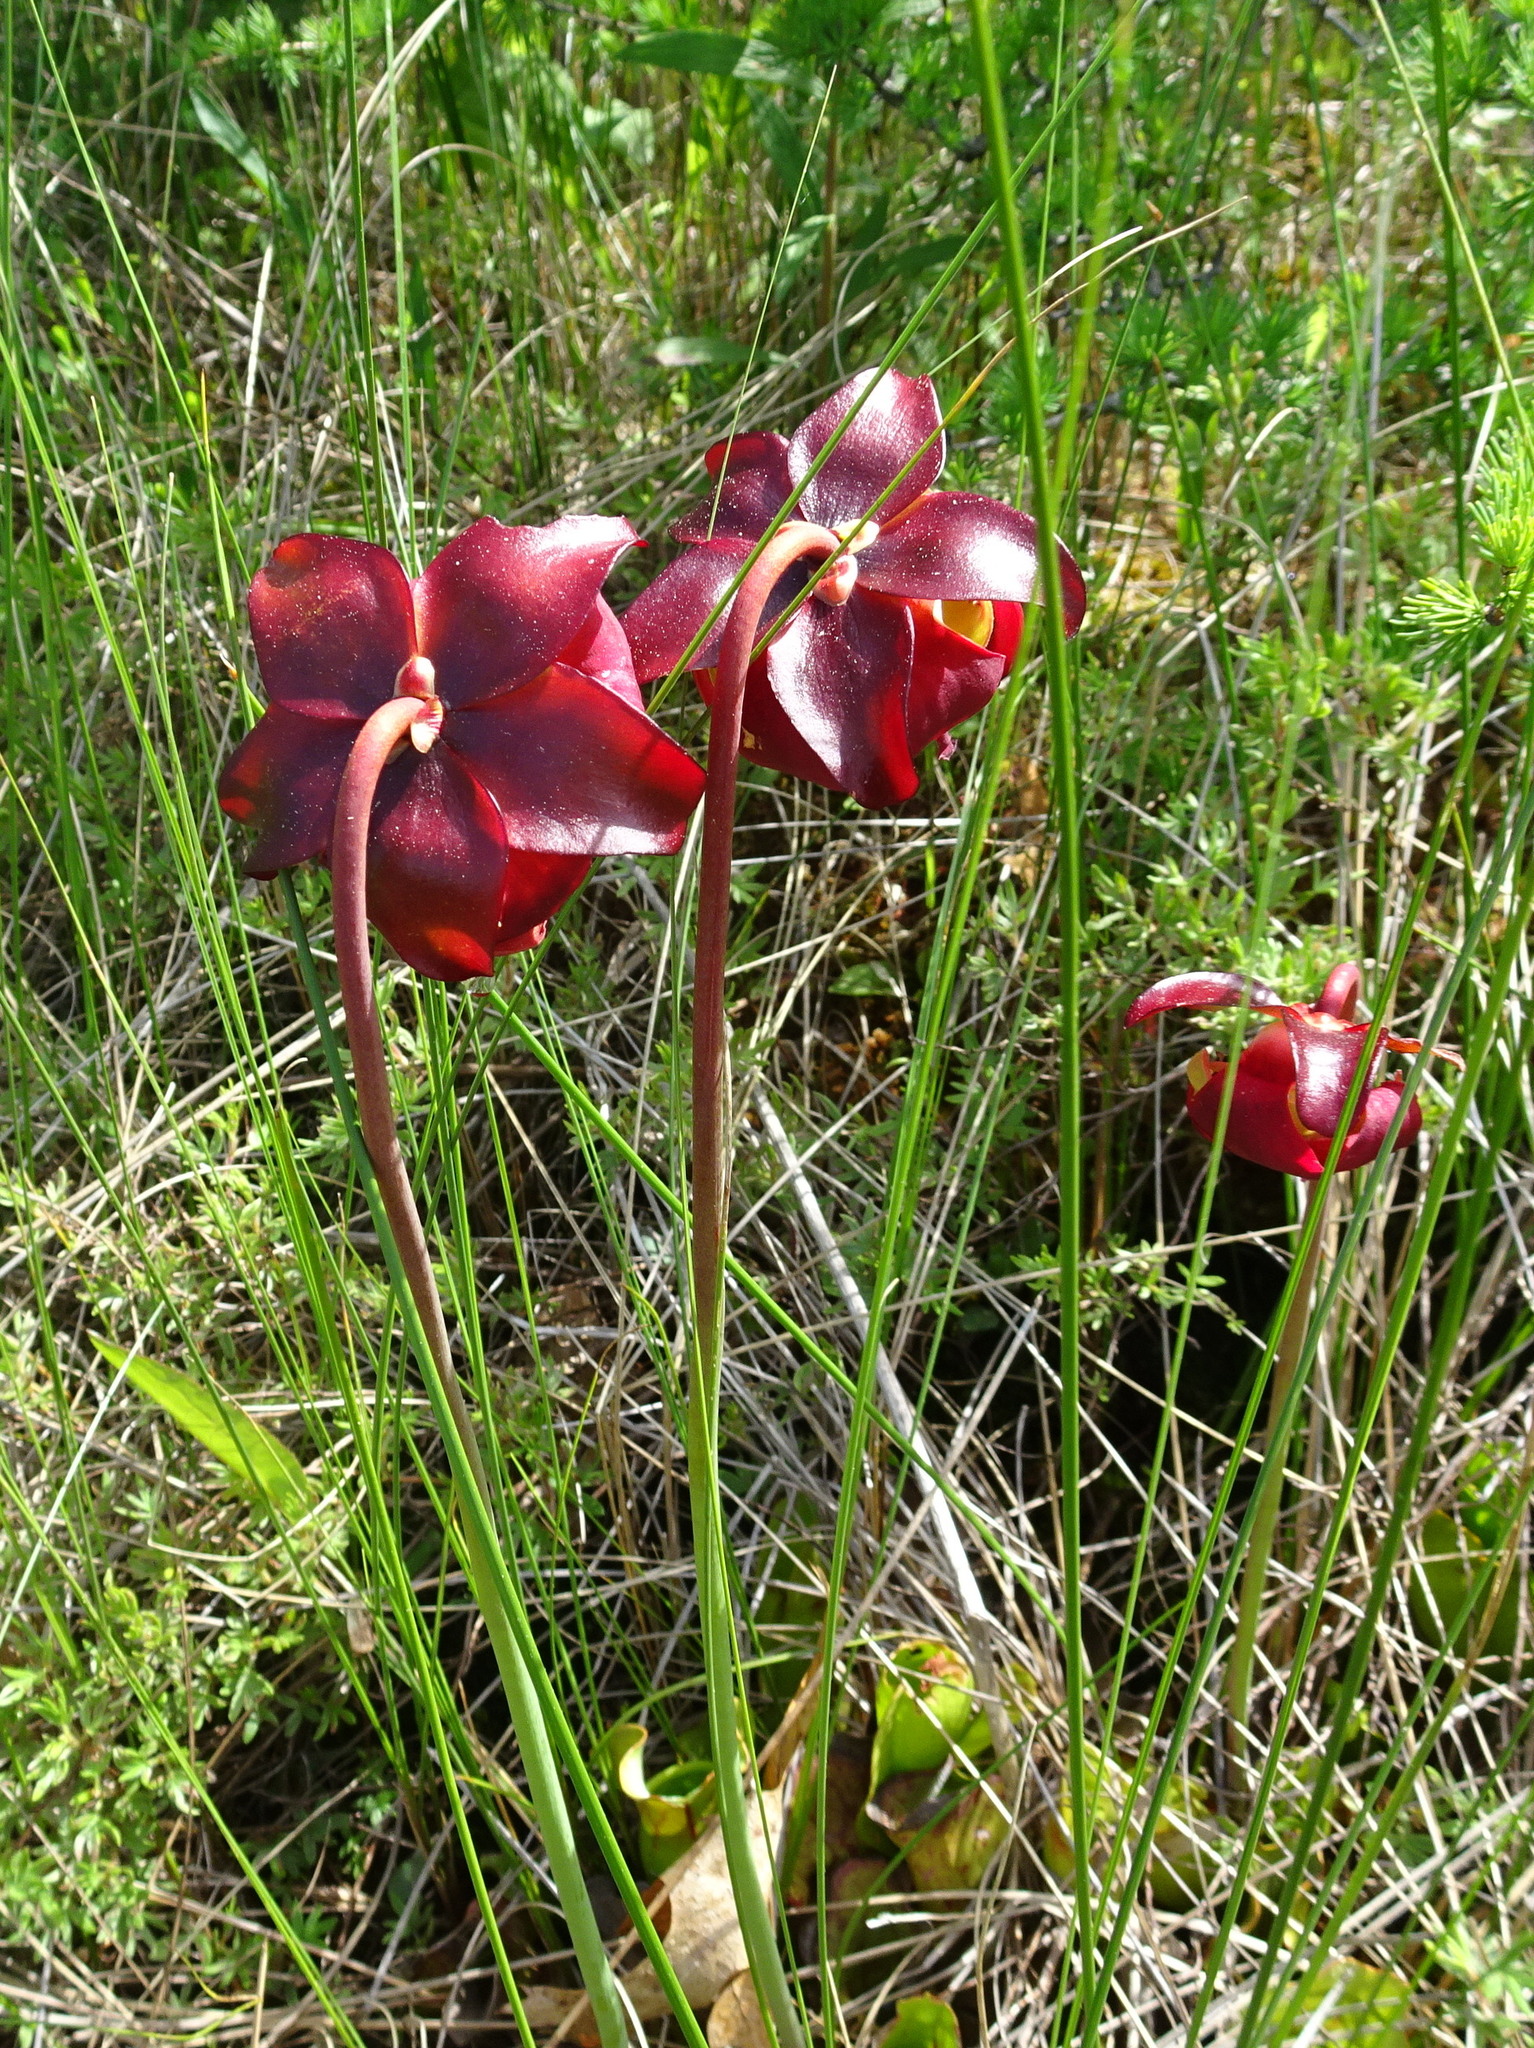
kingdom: Plantae
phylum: Tracheophyta
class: Magnoliopsida
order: Ericales
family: Sarraceniaceae
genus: Sarracenia
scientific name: Sarracenia purpurea
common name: Pitcherplant
